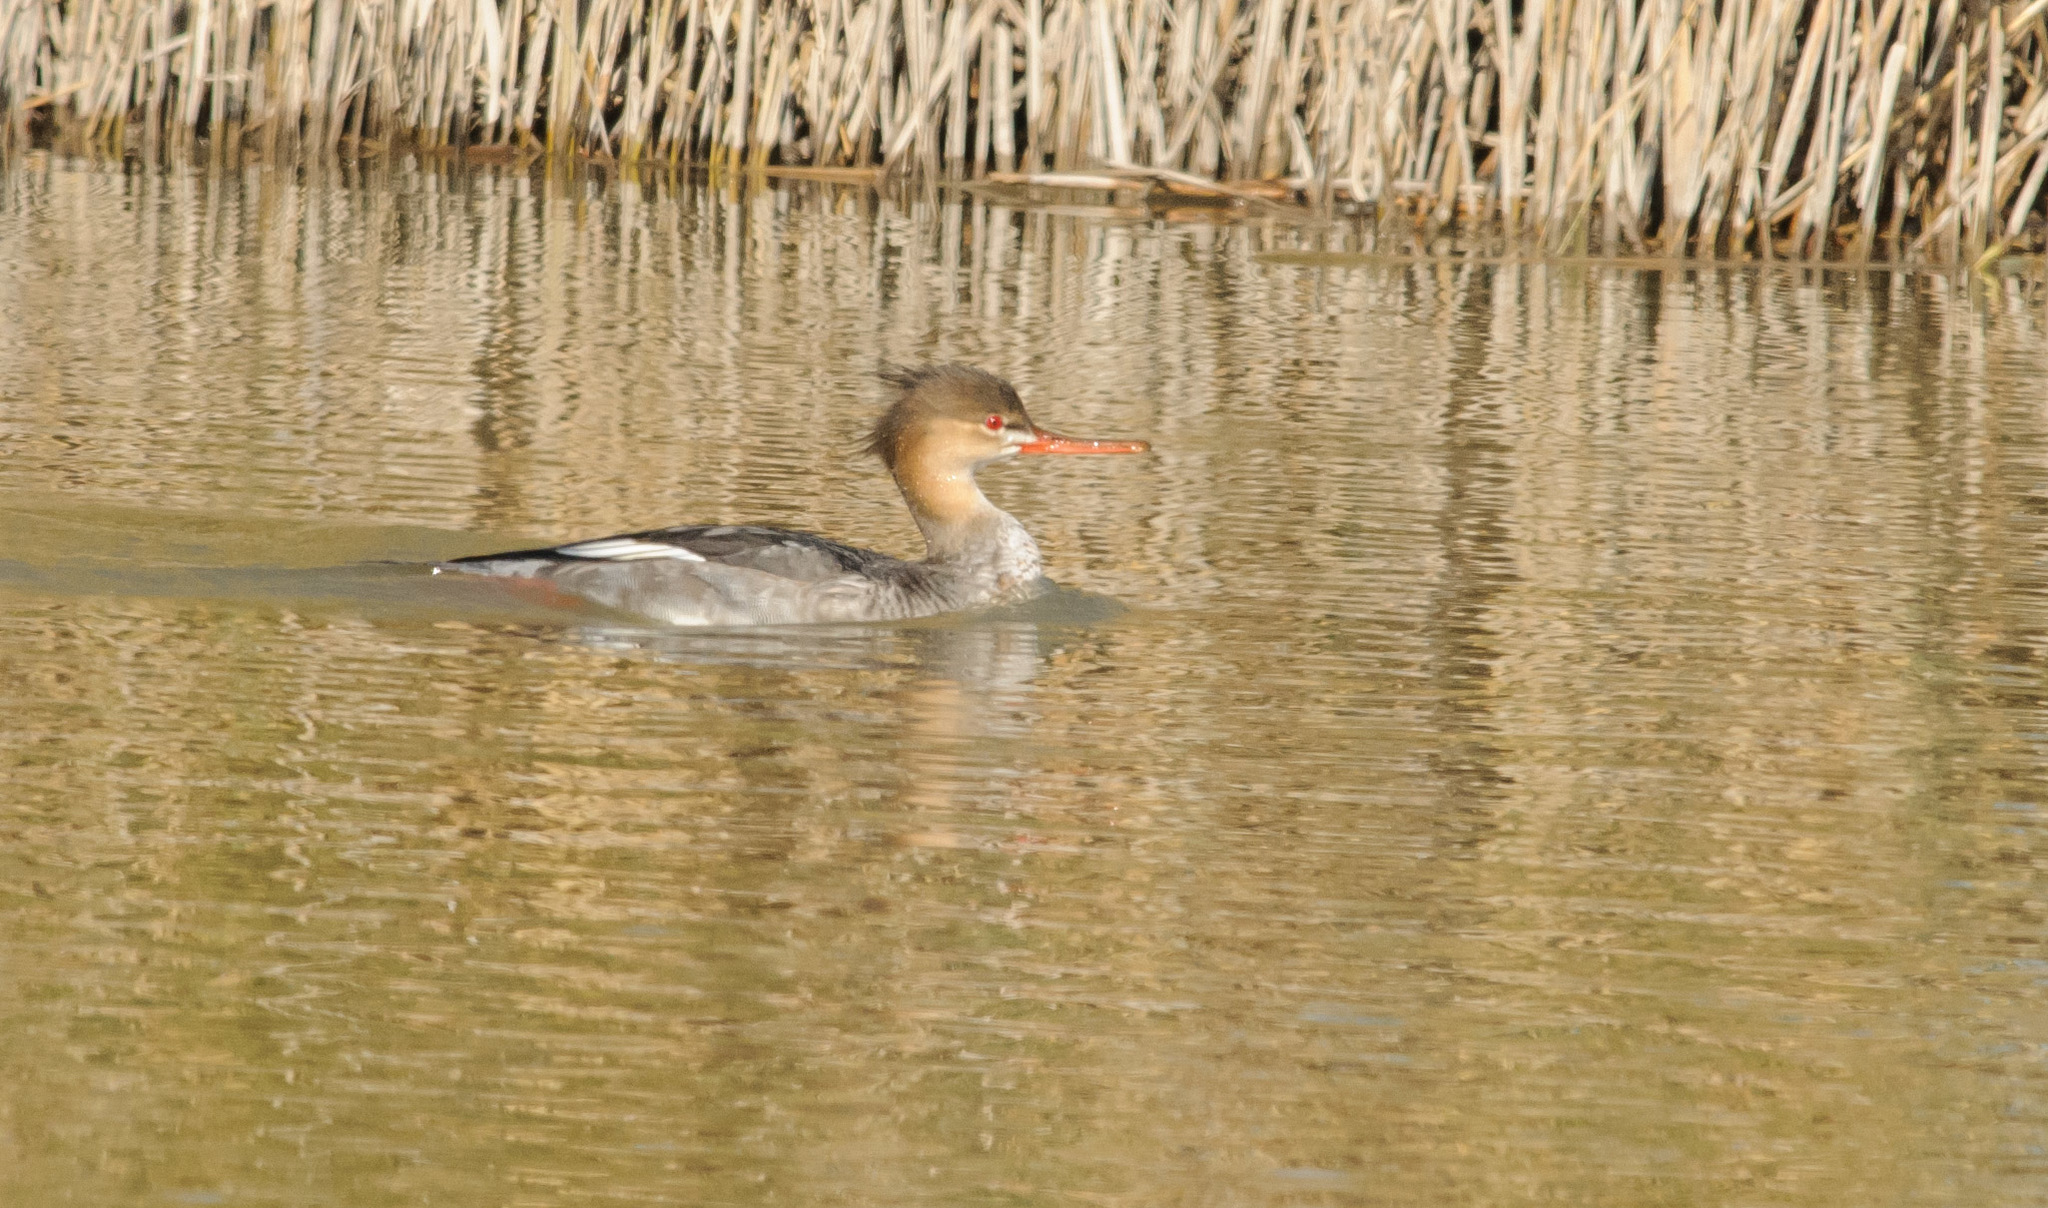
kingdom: Animalia
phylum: Chordata
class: Aves
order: Anseriformes
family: Anatidae
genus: Mergus
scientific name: Mergus serrator
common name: Red-breasted merganser
